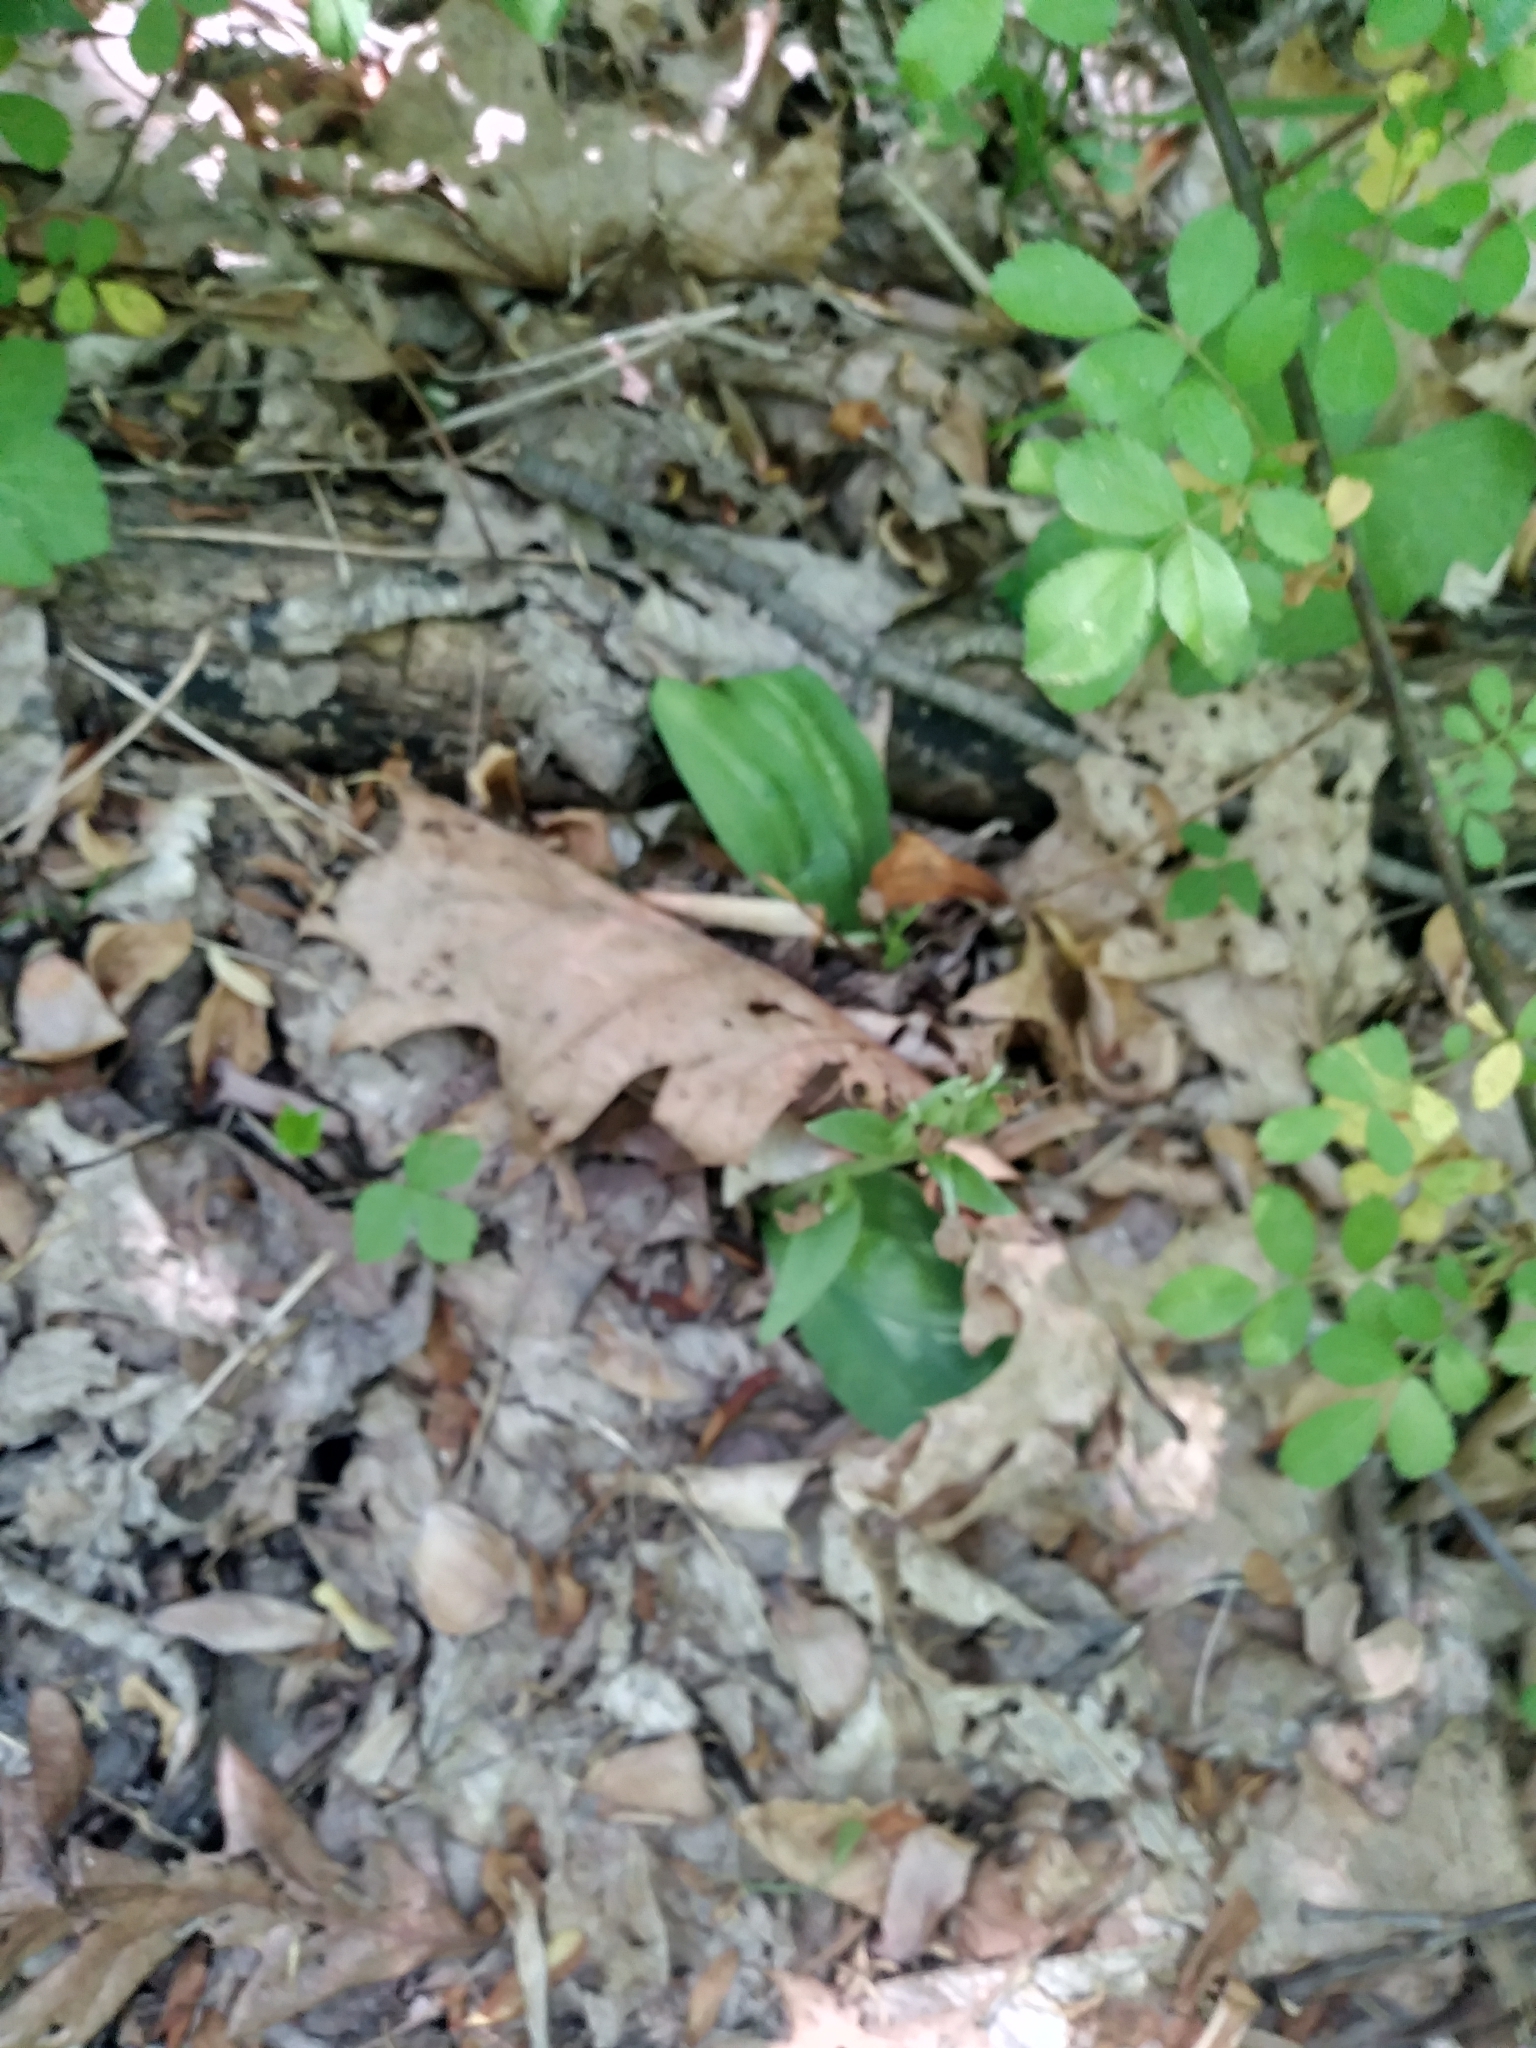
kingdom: Plantae
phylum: Tracheophyta
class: Liliopsida
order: Asparagales
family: Orchidaceae
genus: Galearis
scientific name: Galearis spectabilis
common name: Purple-hooded orchis
